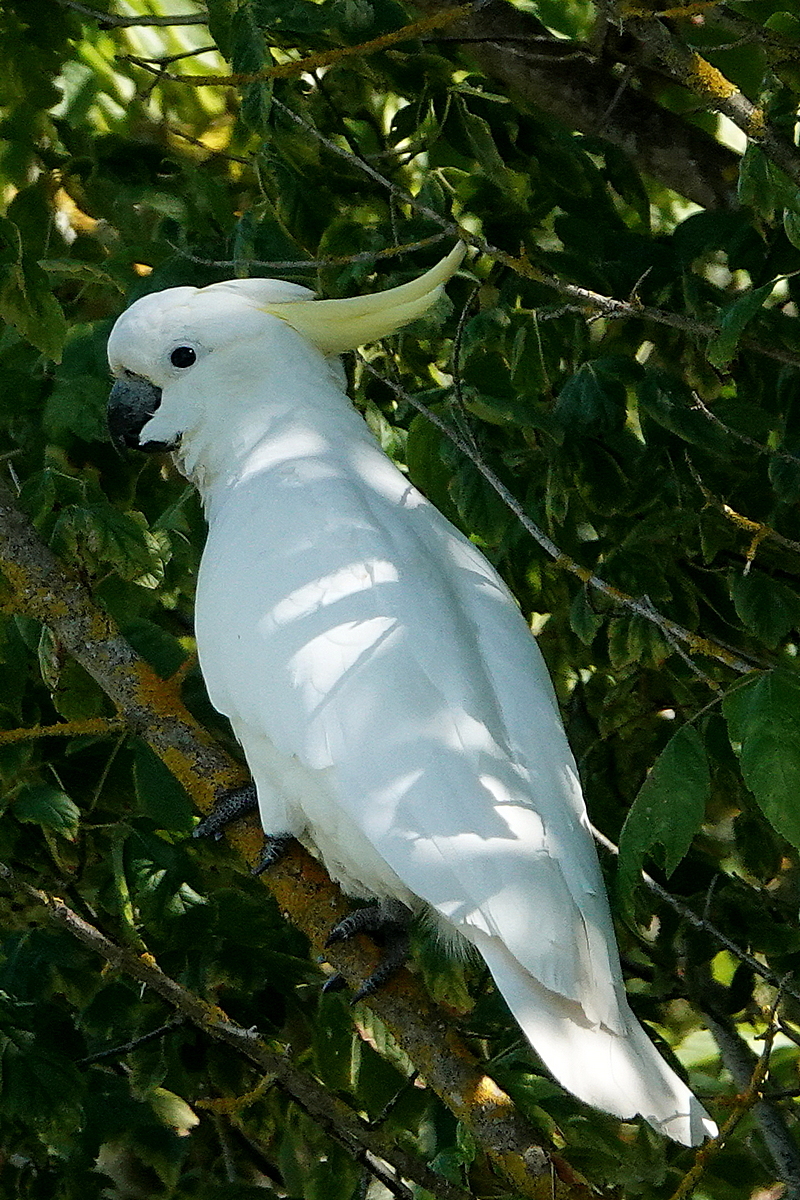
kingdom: Animalia
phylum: Chordata
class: Aves
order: Psittaciformes
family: Psittacidae
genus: Cacatua
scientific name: Cacatua galerita
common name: Sulphur-crested cockatoo
